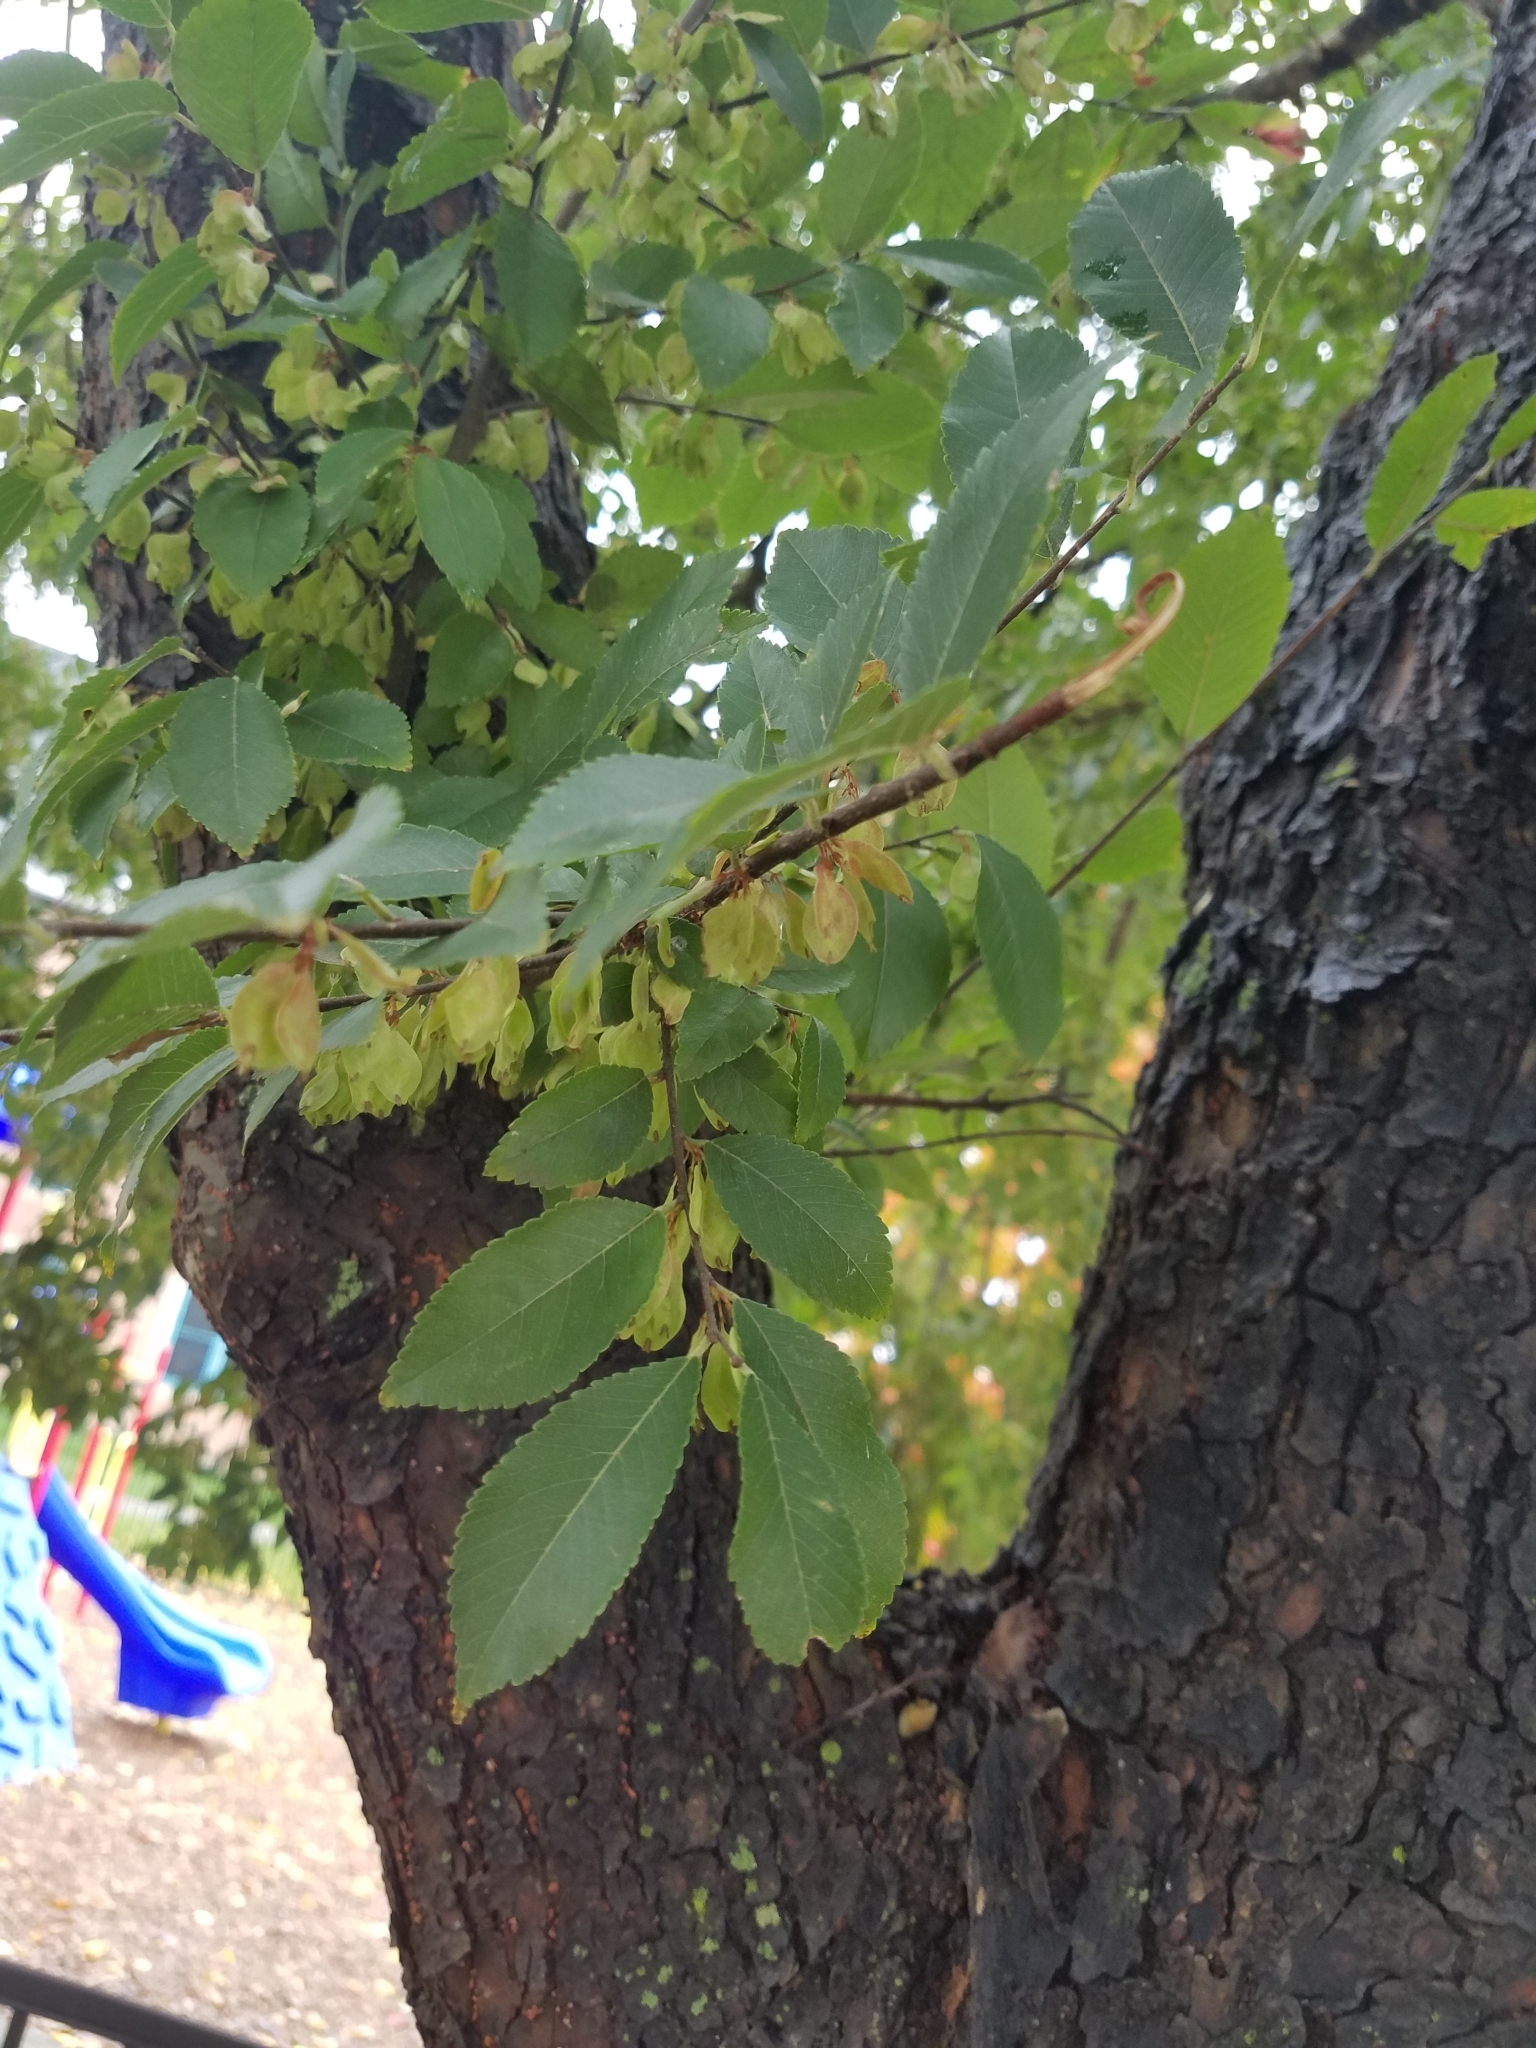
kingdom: Plantae
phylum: Tracheophyta
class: Magnoliopsida
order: Rosales
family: Ulmaceae
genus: Ulmus
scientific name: Ulmus parvifolia
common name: Chinese elm
